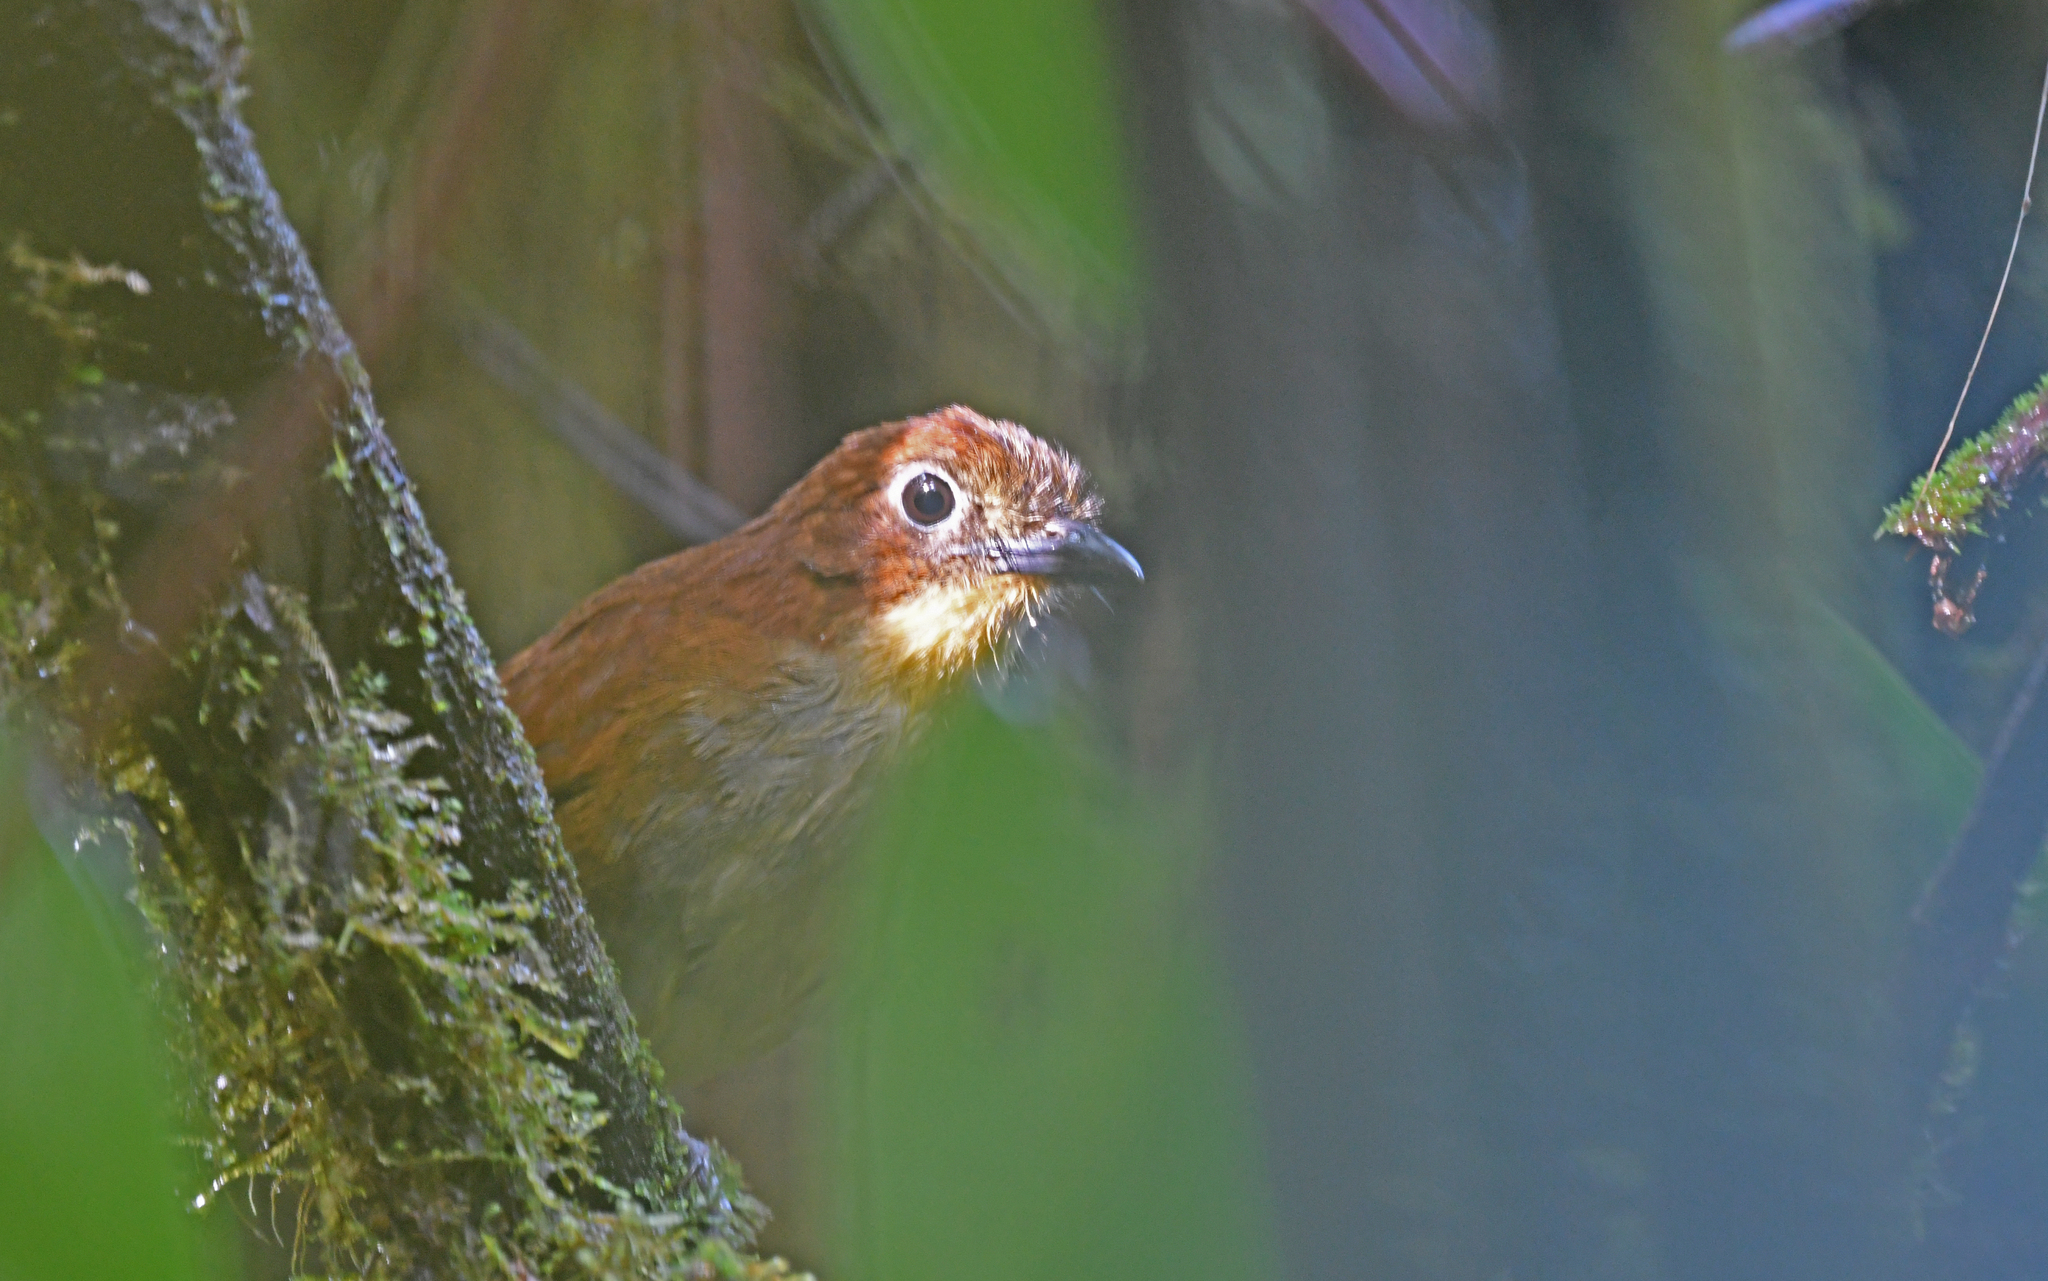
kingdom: Animalia
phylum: Chordata
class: Aves
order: Passeriformes
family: Grallariidae
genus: Grallaria
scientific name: Grallaria flavotincta
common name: Yellow-breasted antpitta
